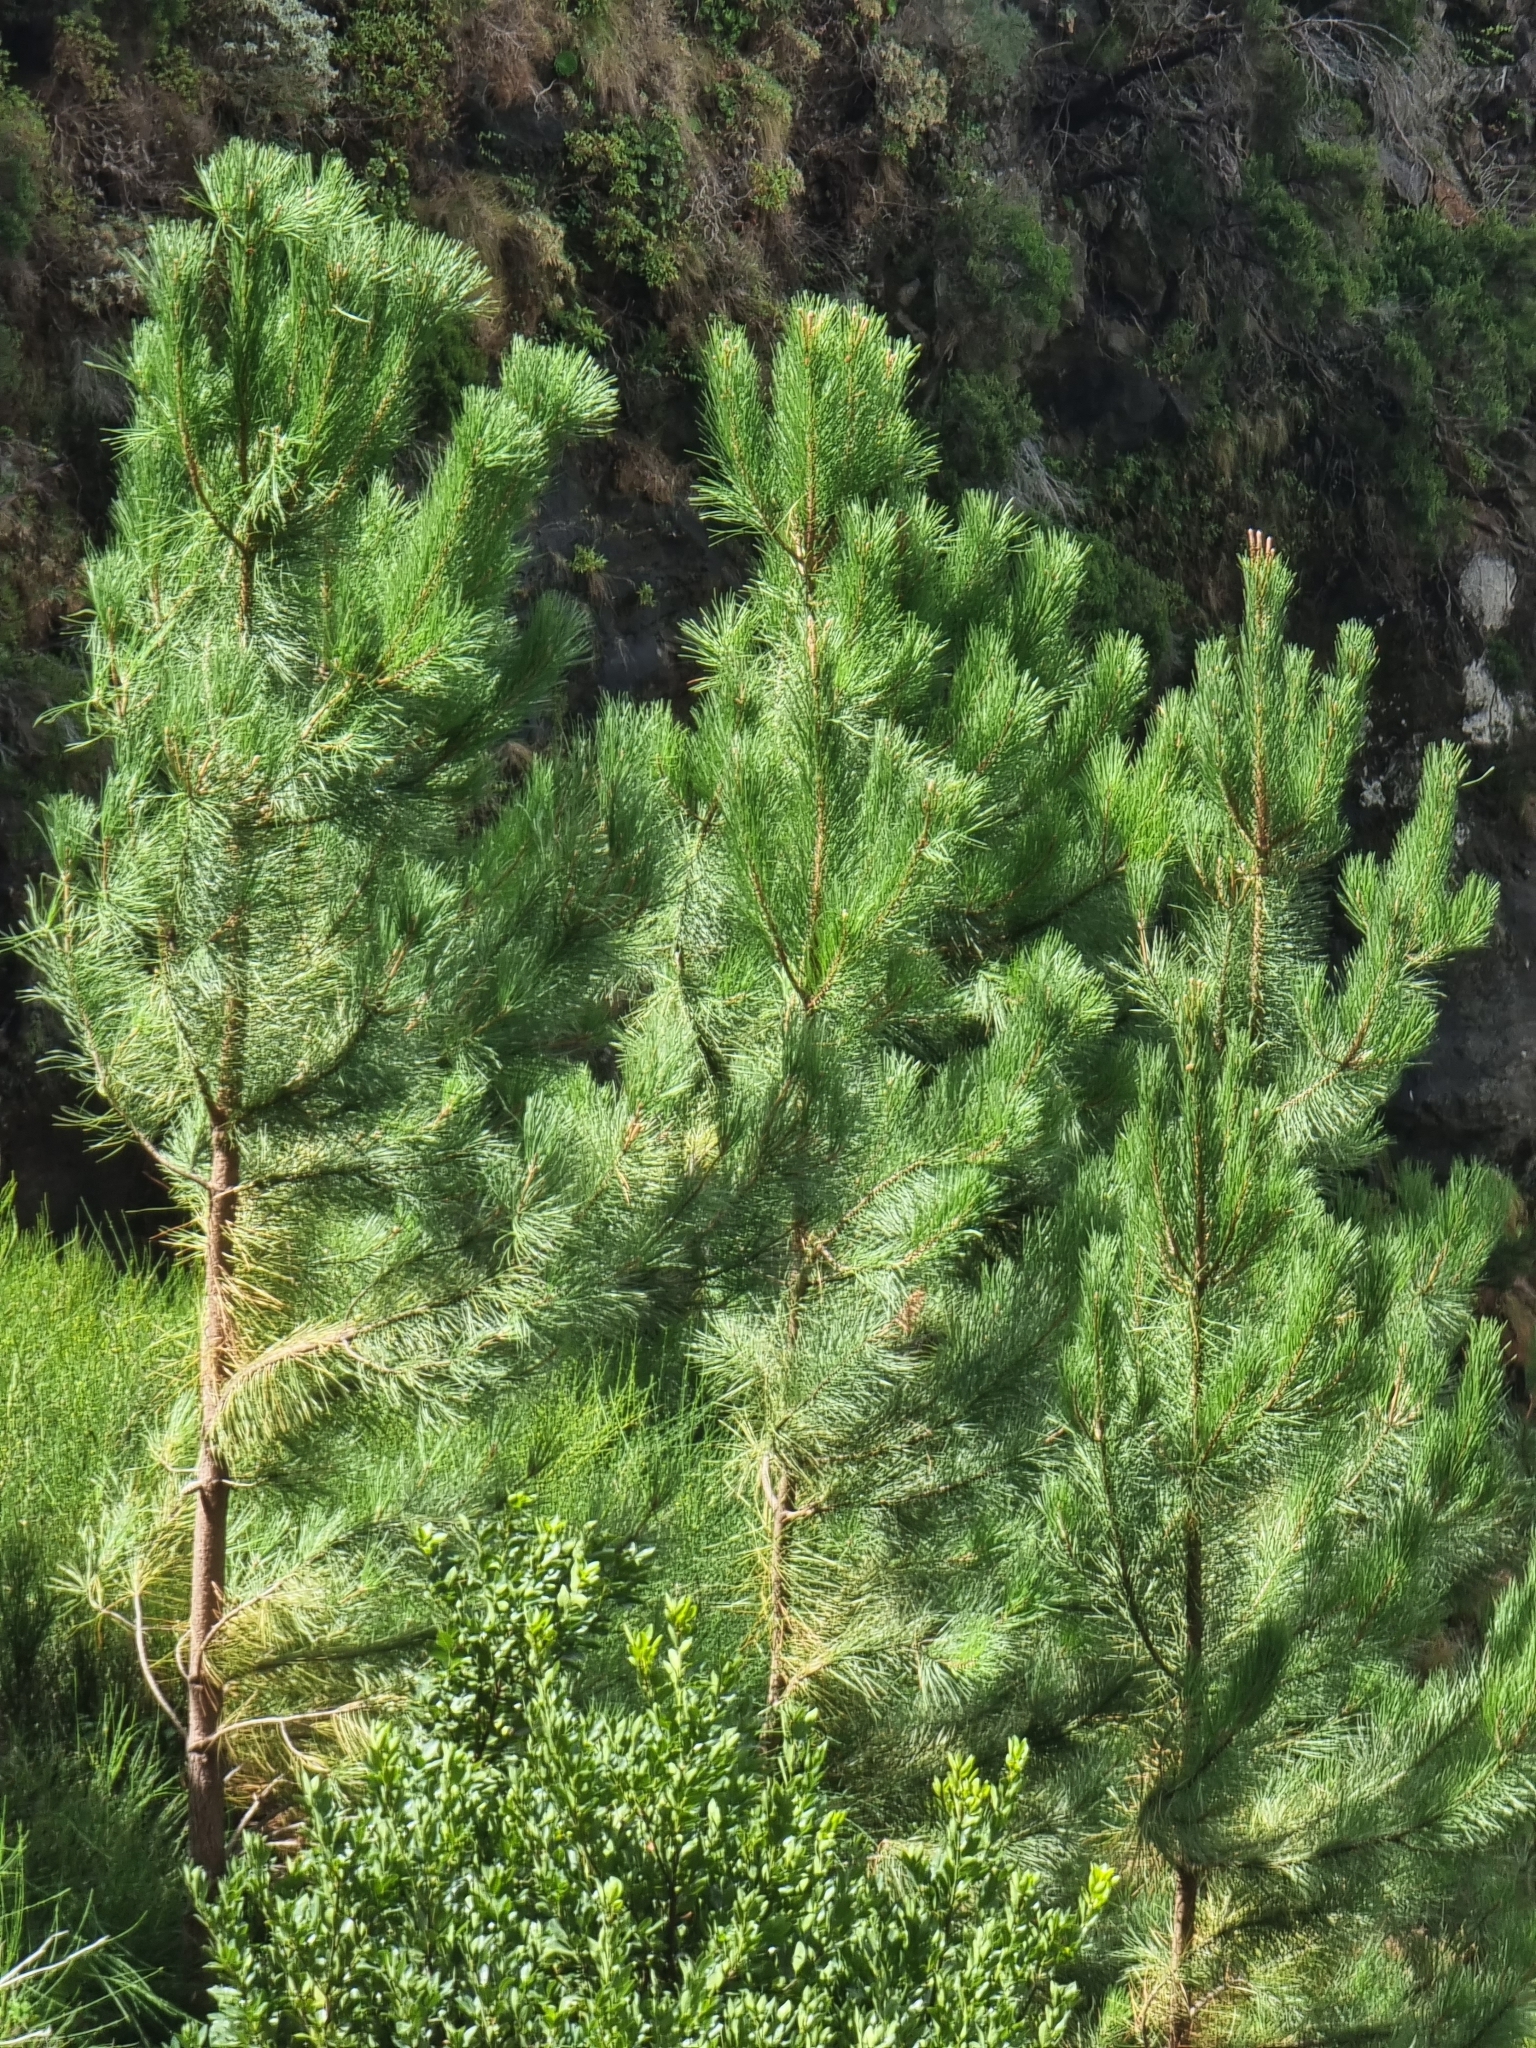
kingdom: Plantae
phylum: Tracheophyta
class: Pinopsida
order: Pinales
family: Pinaceae
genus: Pinus
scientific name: Pinus pinaster
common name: Maritime pine
